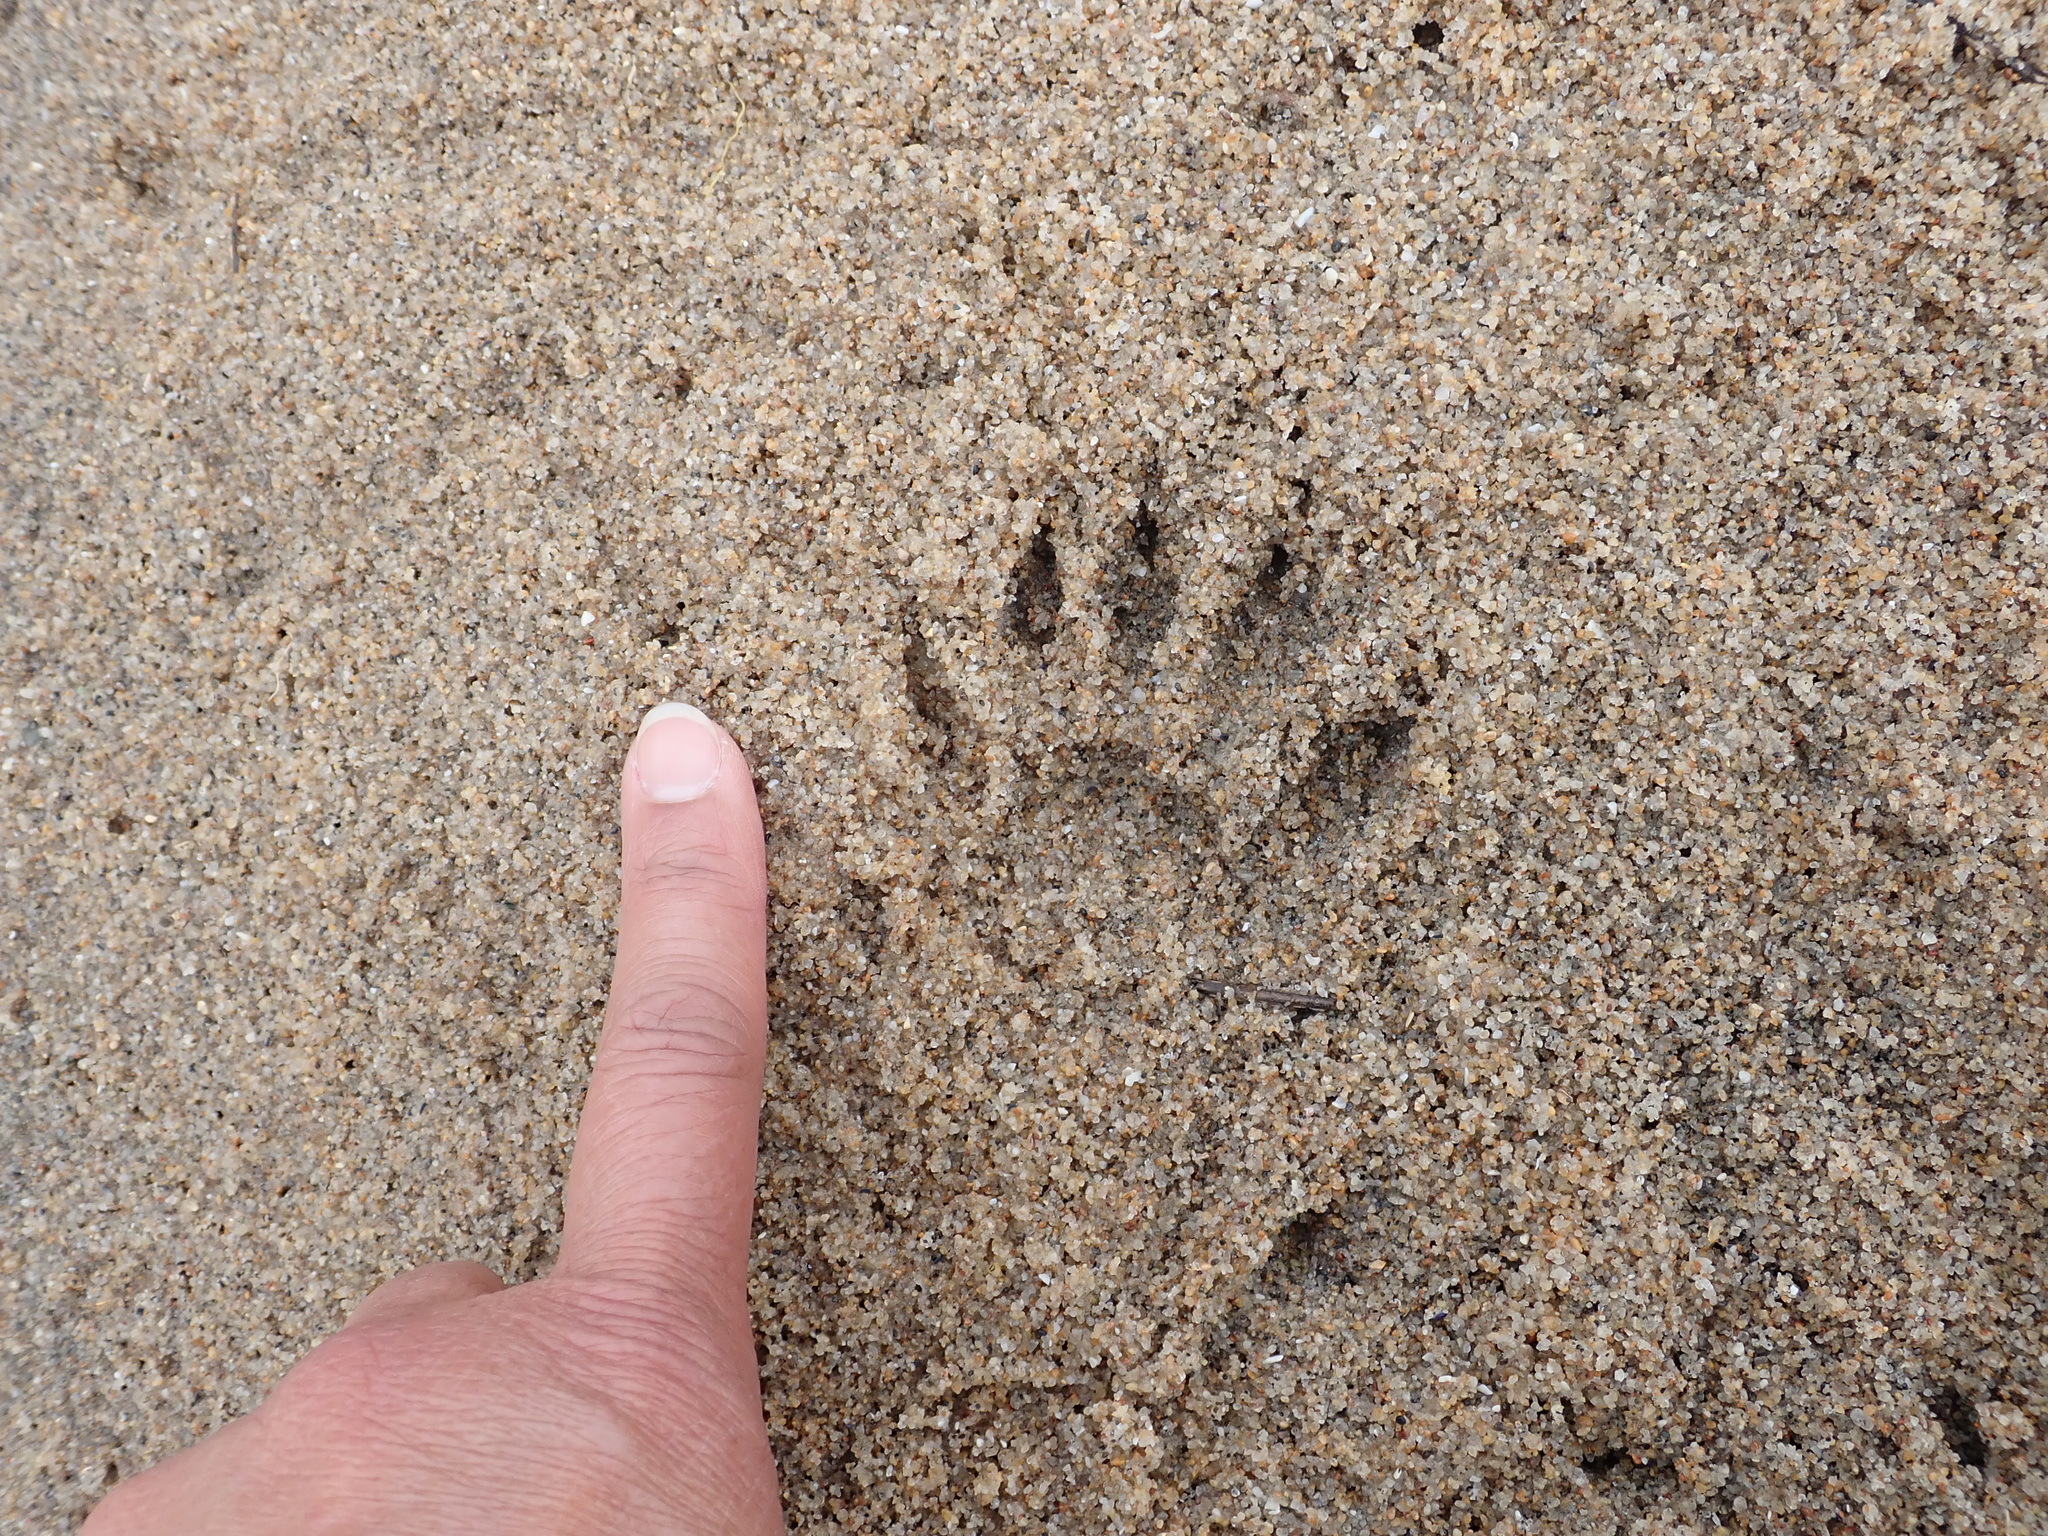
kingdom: Animalia
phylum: Chordata
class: Mammalia
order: Carnivora
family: Procyonidae
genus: Procyon
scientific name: Procyon lotor
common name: Raccoon
